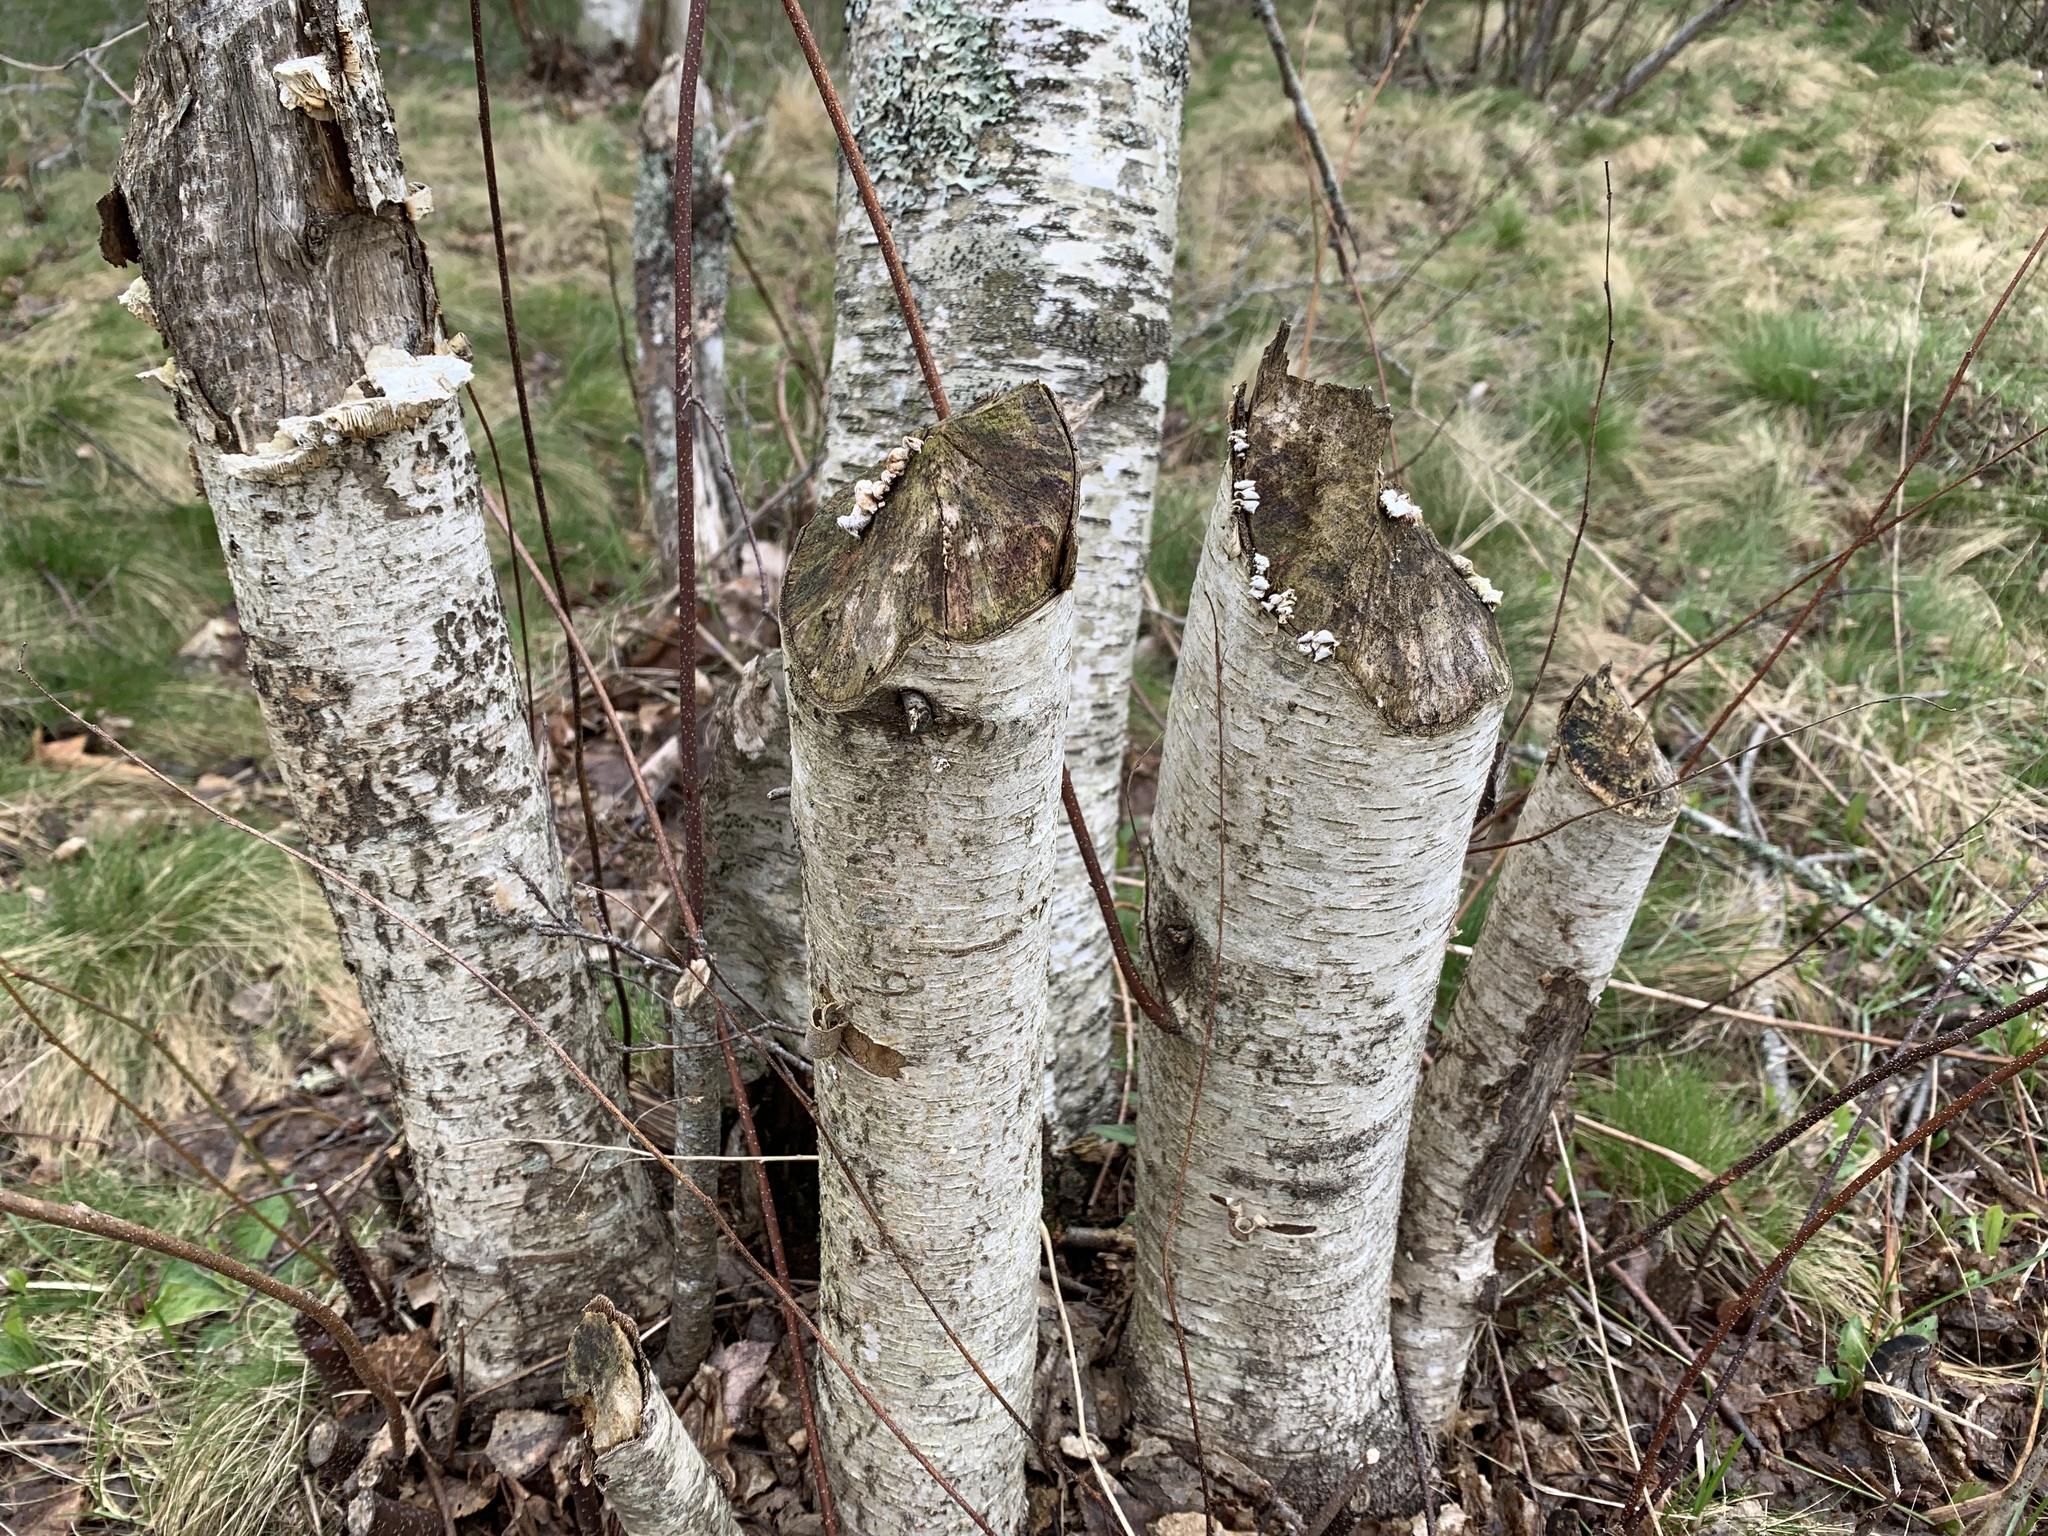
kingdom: Animalia
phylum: Chordata
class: Mammalia
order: Rodentia
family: Castoridae
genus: Castor
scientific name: Castor canadensis
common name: American beaver
